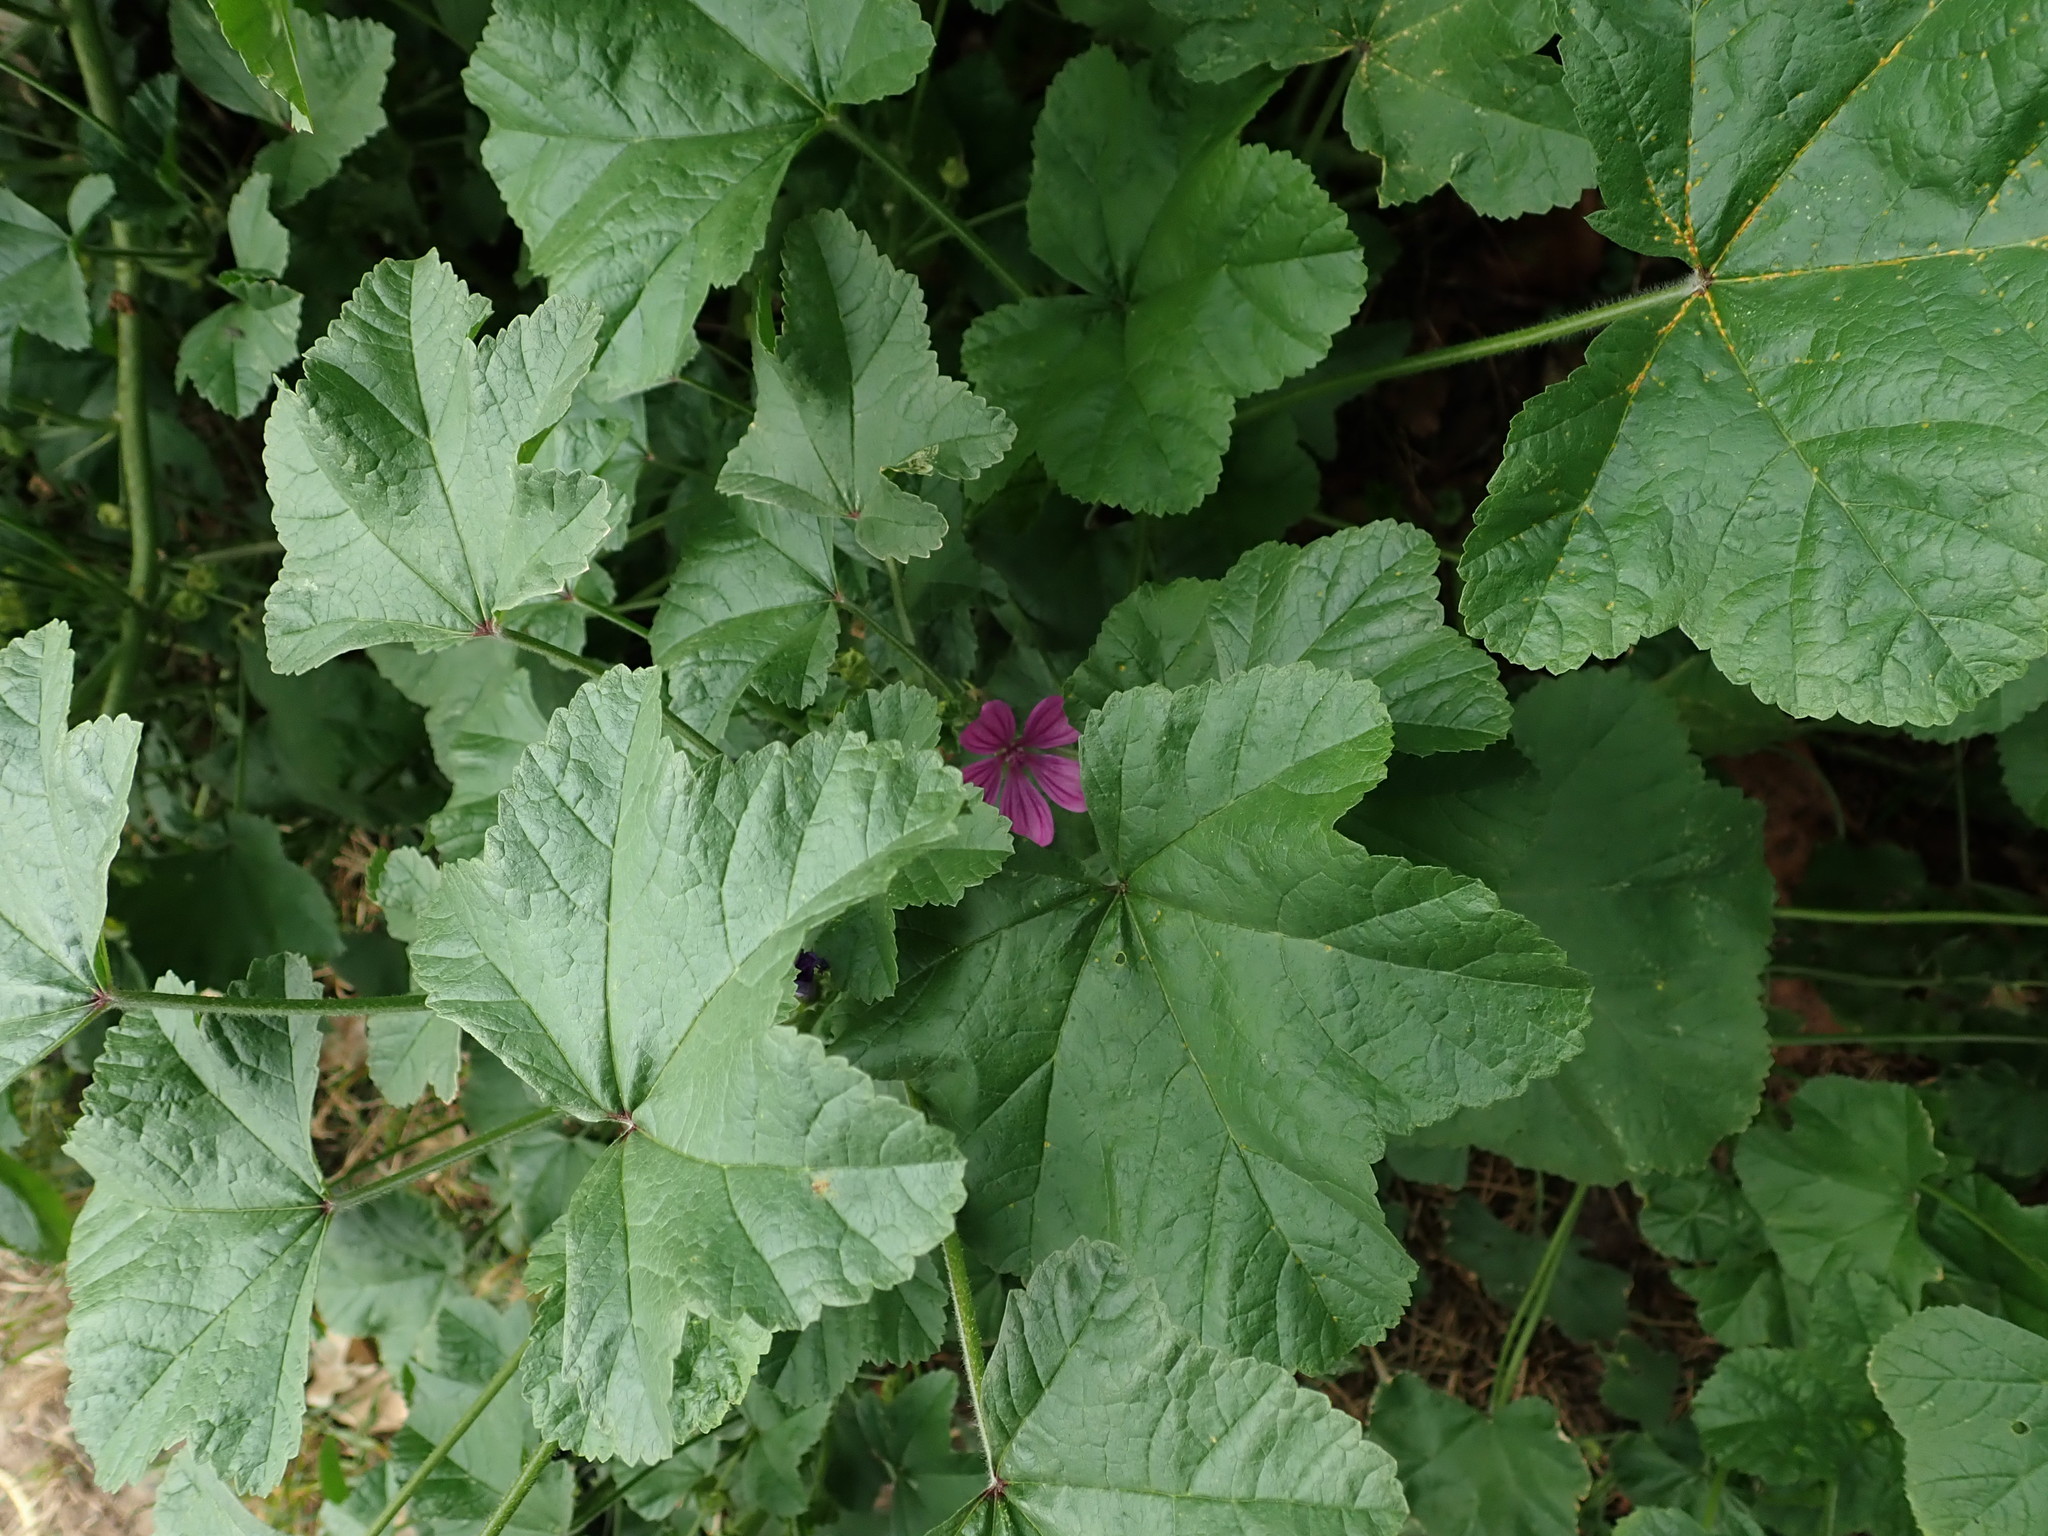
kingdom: Plantae
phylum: Tracheophyta
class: Magnoliopsida
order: Malvales
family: Malvaceae
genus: Malva
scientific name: Malva sylvestris
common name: Common mallow
